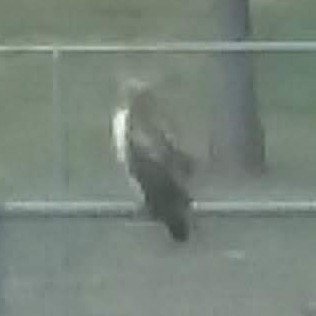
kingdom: Animalia
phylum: Chordata
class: Aves
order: Accipitriformes
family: Accipitridae
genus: Buteo
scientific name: Buteo jamaicensis
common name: Red-tailed hawk
